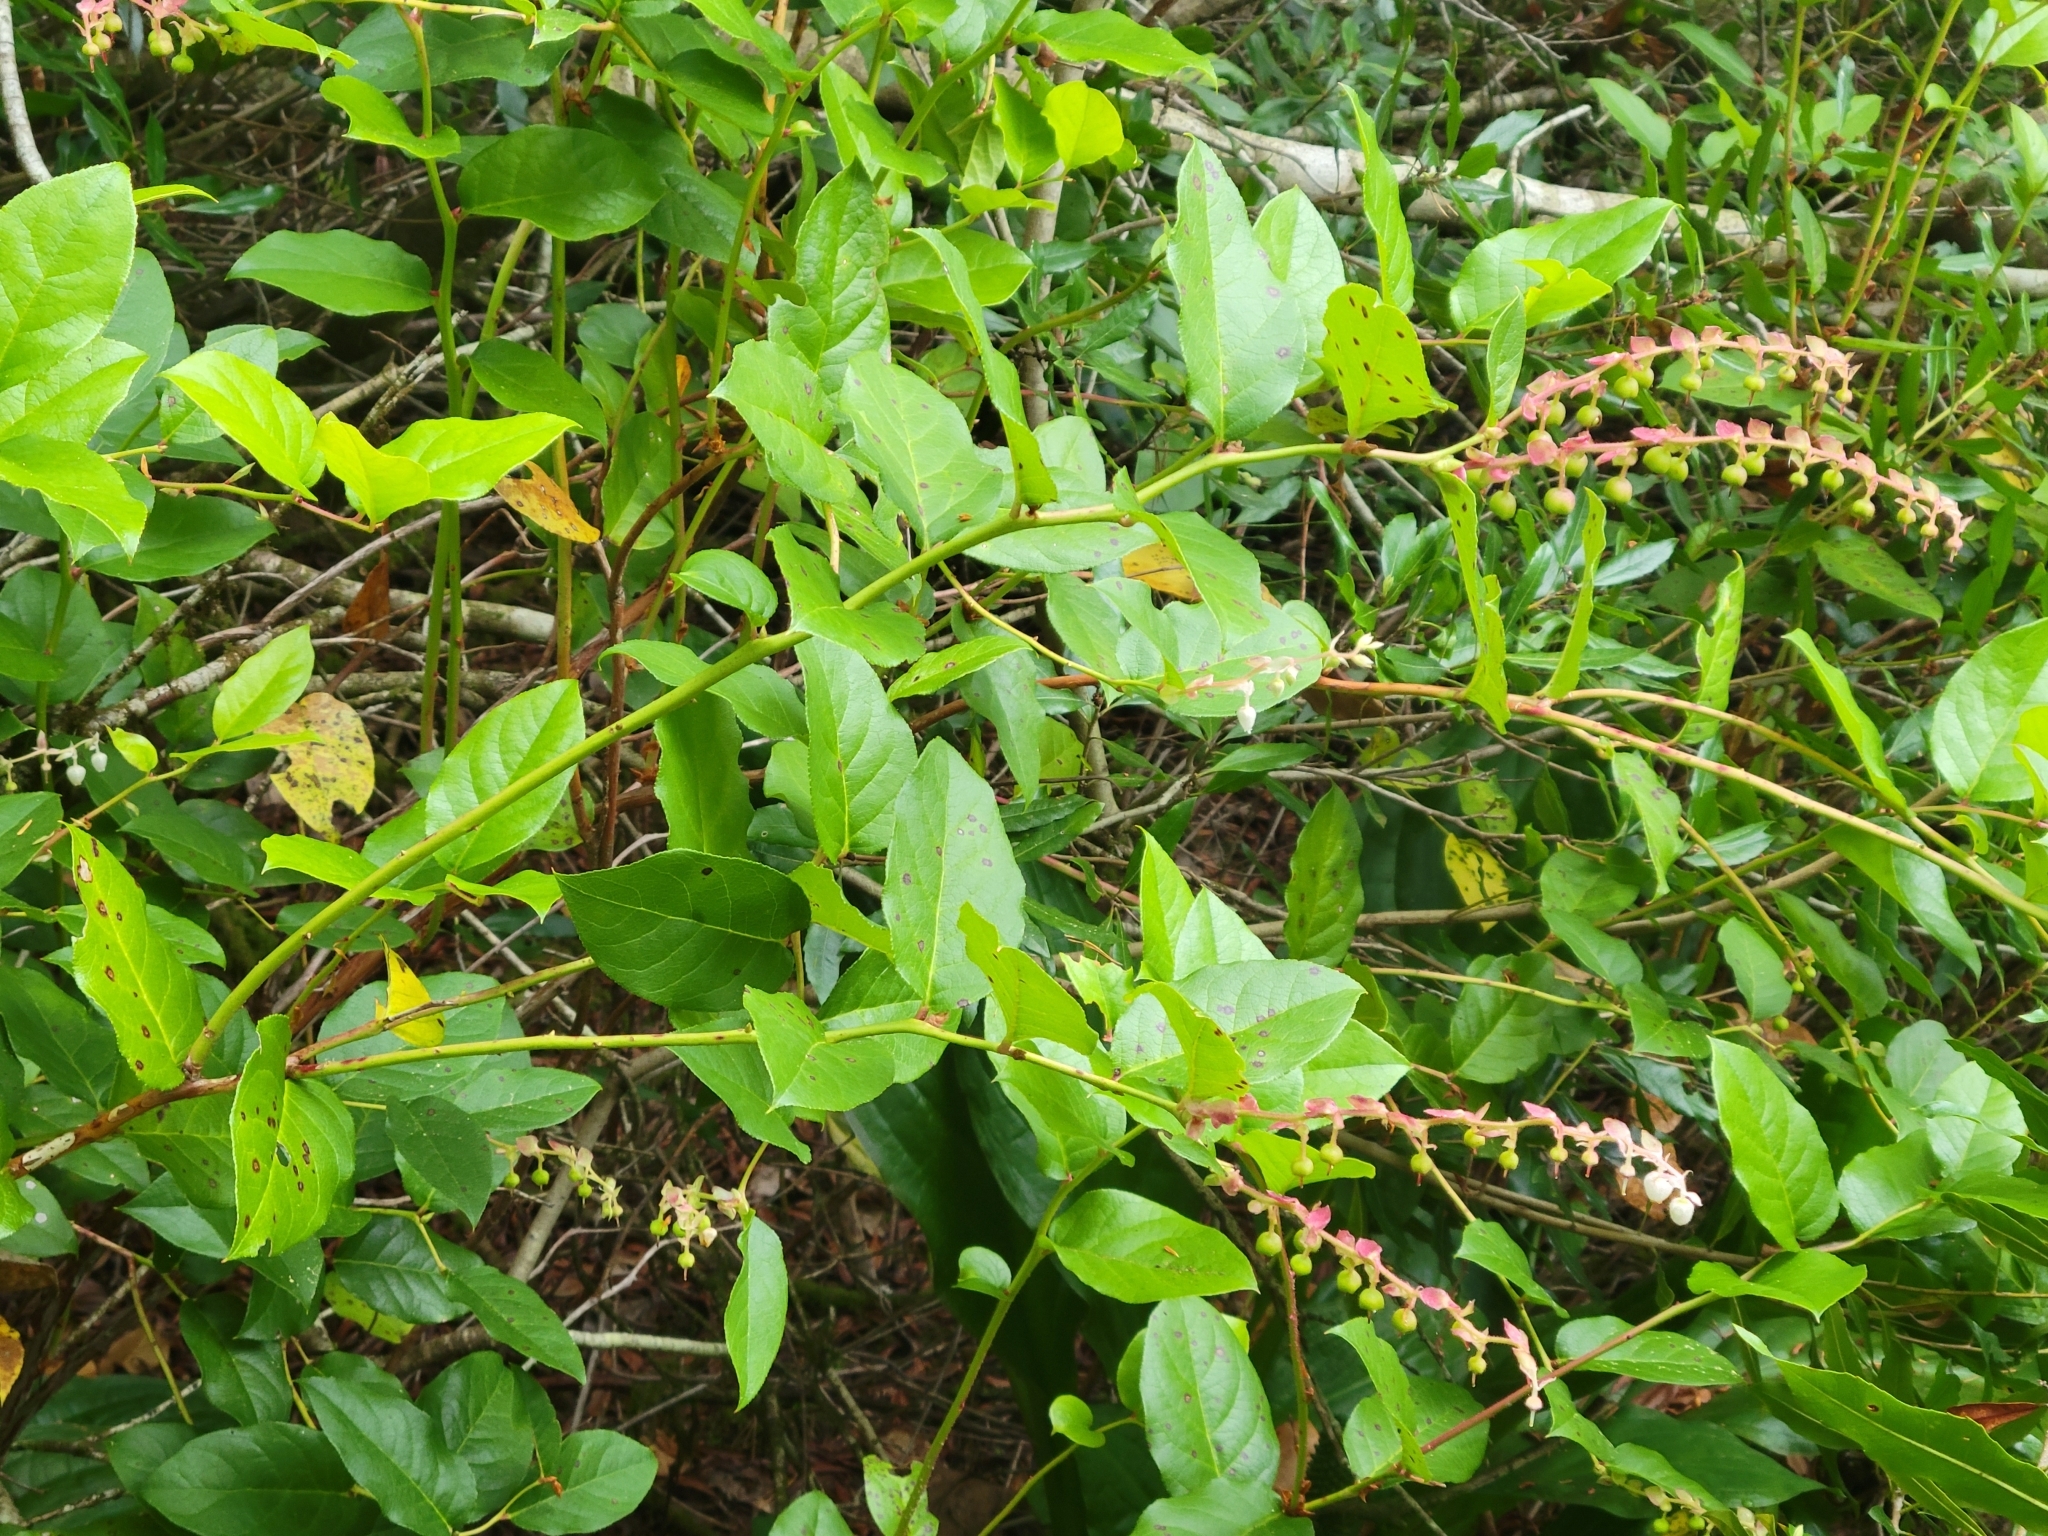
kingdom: Plantae
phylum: Tracheophyta
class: Magnoliopsida
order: Ericales
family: Ericaceae
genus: Gaultheria
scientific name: Gaultheria shallon
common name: Shallon
